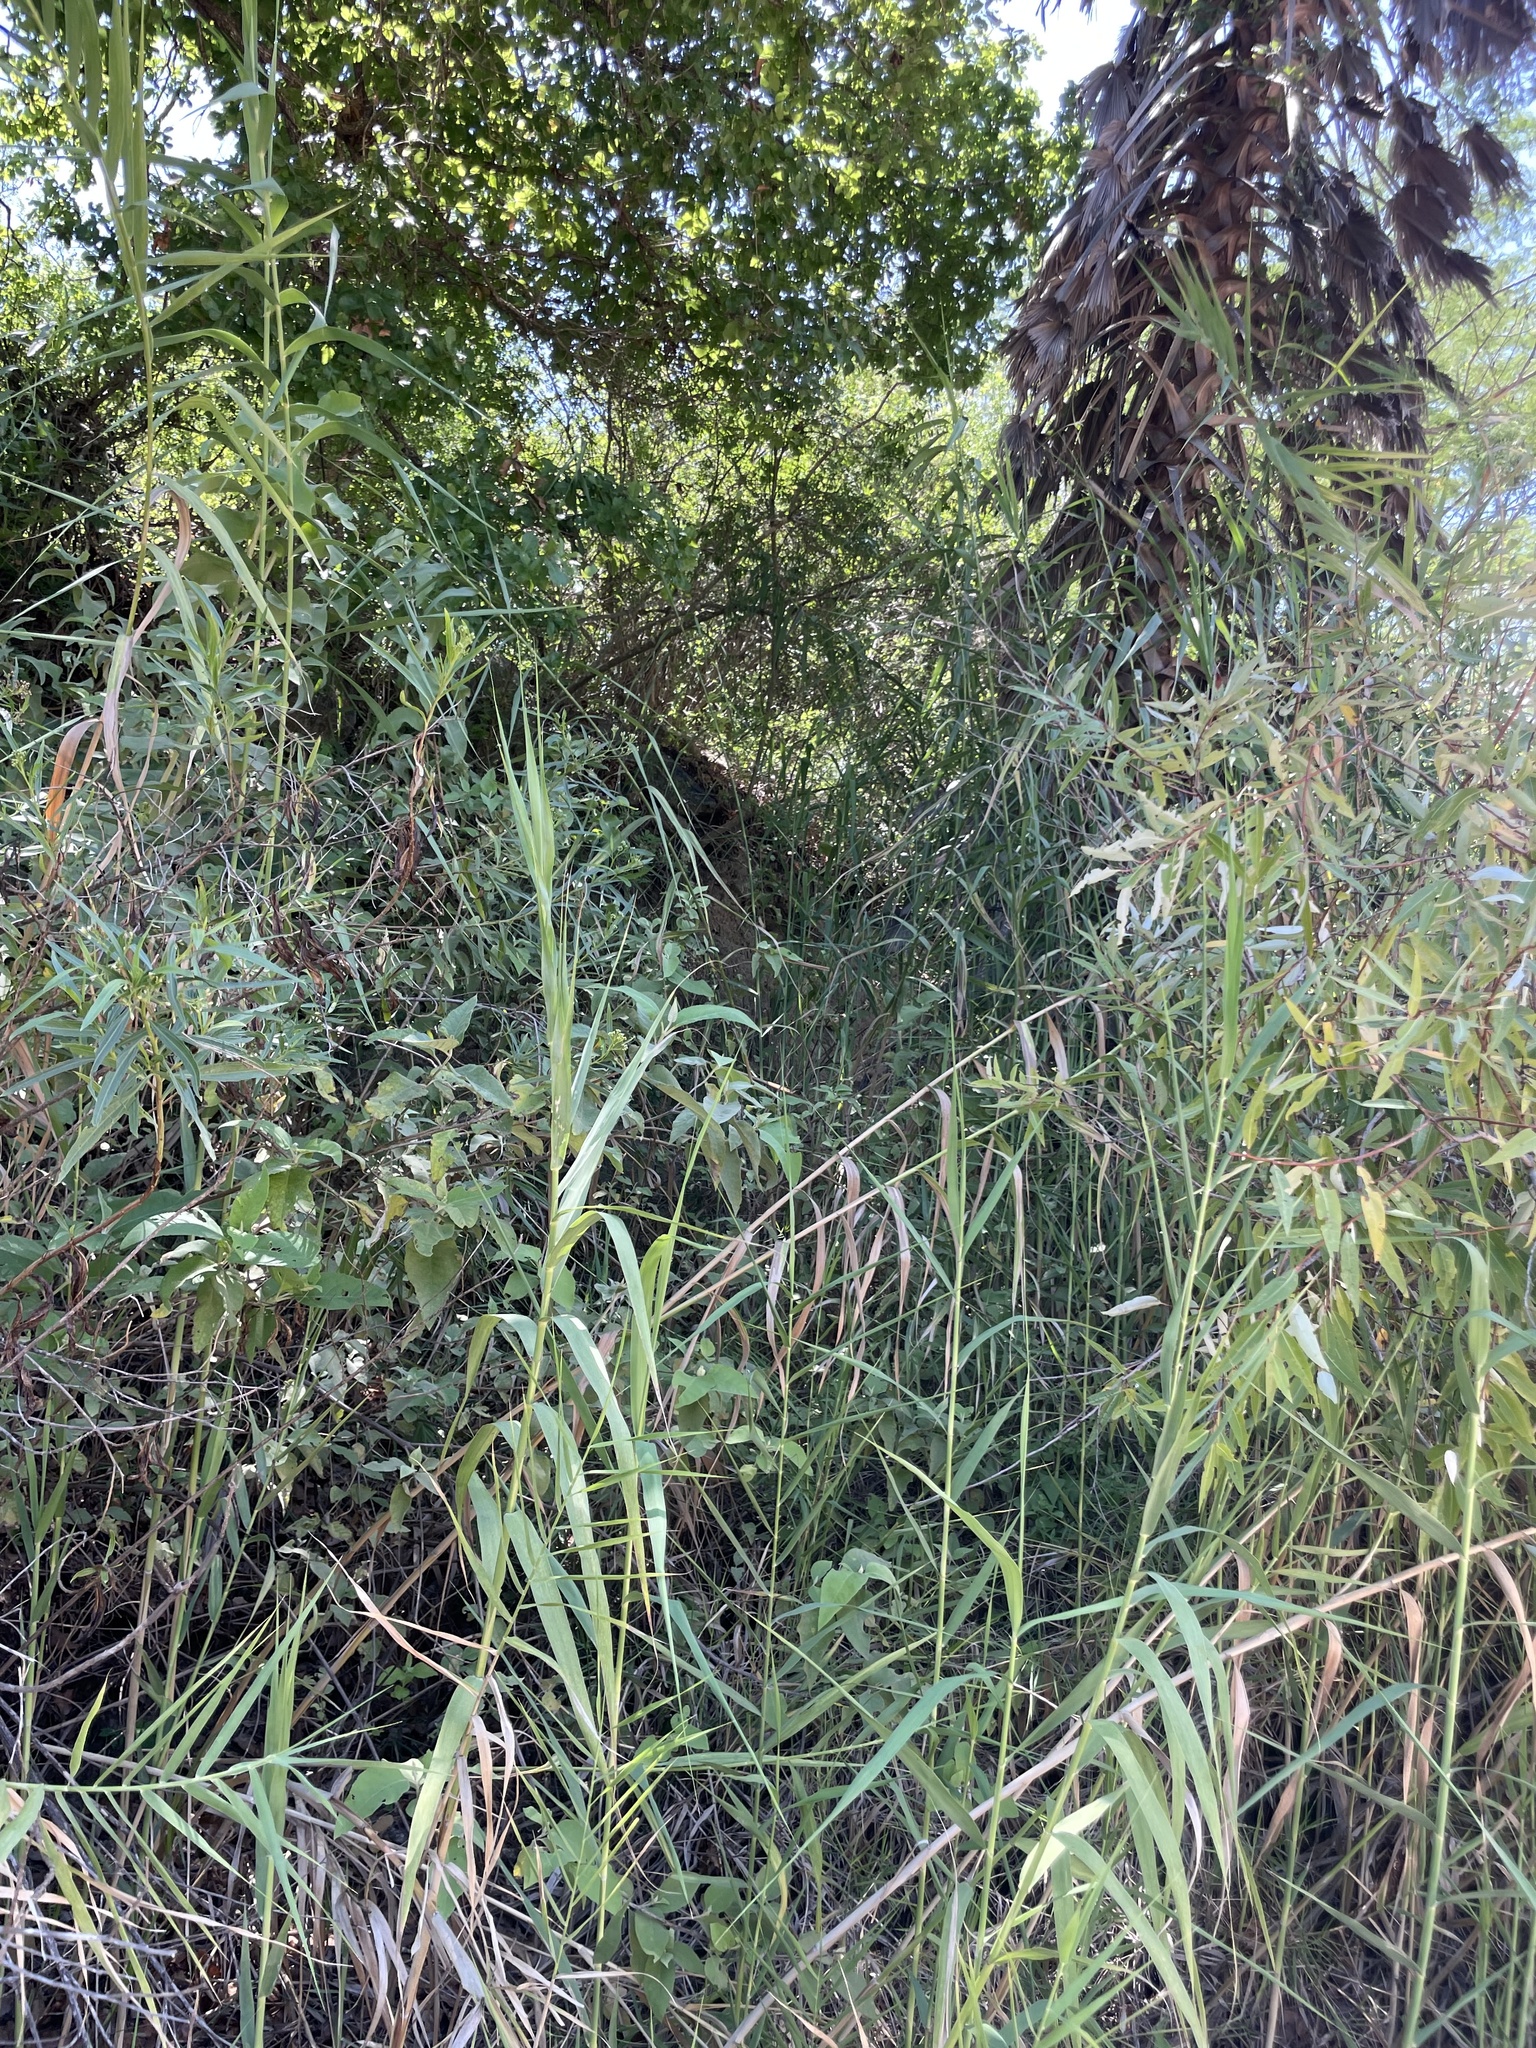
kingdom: Plantae
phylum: Tracheophyta
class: Liliopsida
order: Poales
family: Poaceae
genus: Phragmites
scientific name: Phragmites australis
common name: Common reed
